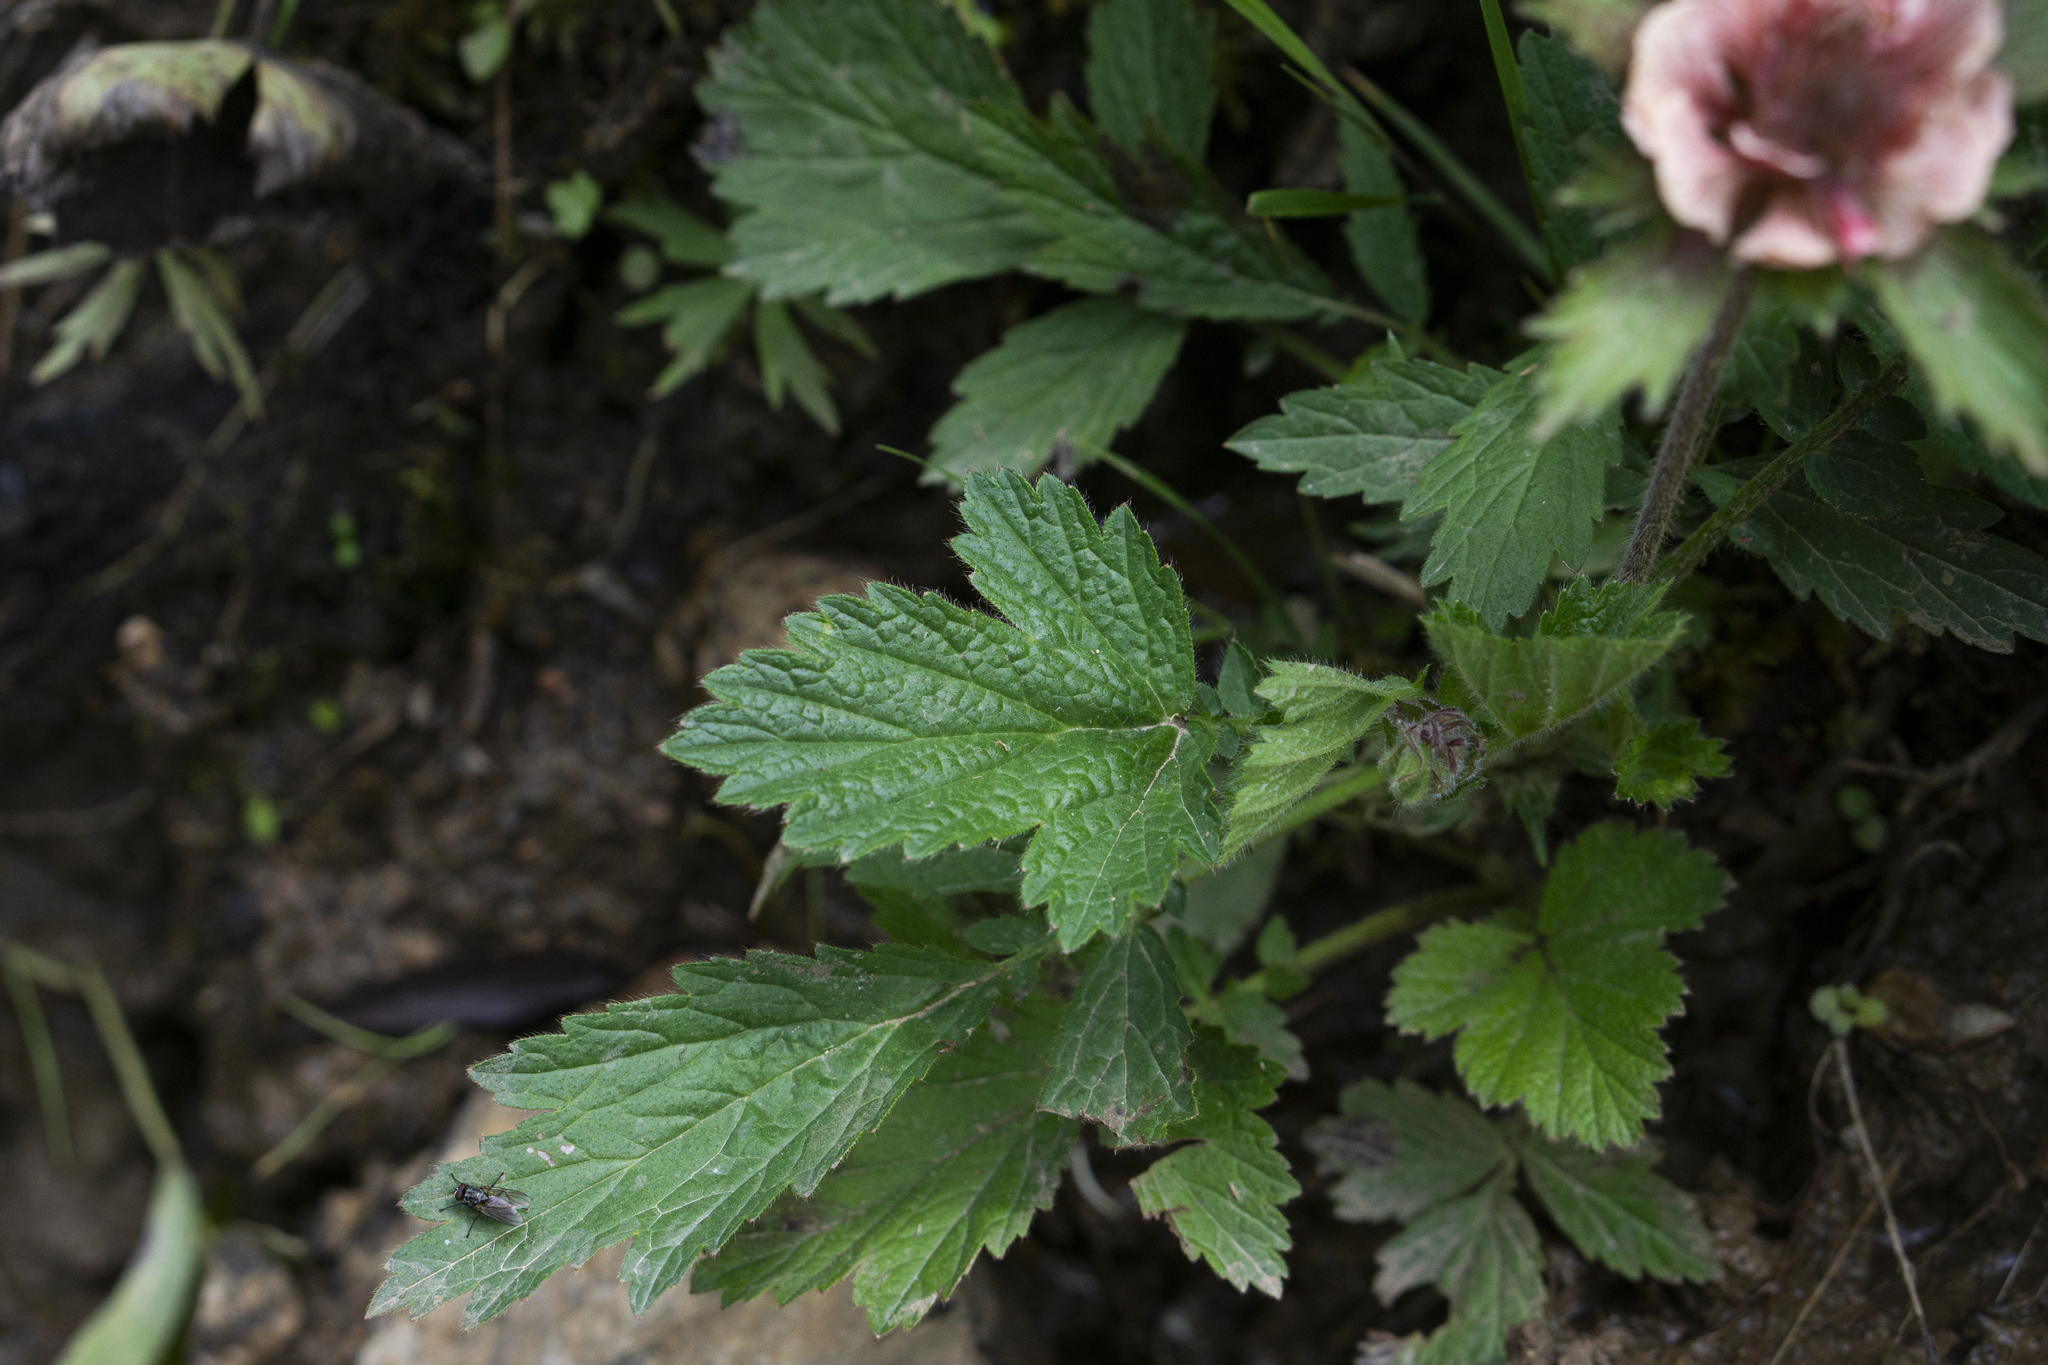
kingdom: Plantae
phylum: Tracheophyta
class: Magnoliopsida
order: Rosales
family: Rosaceae
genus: Geum
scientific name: Geum rivale
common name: Water avens
